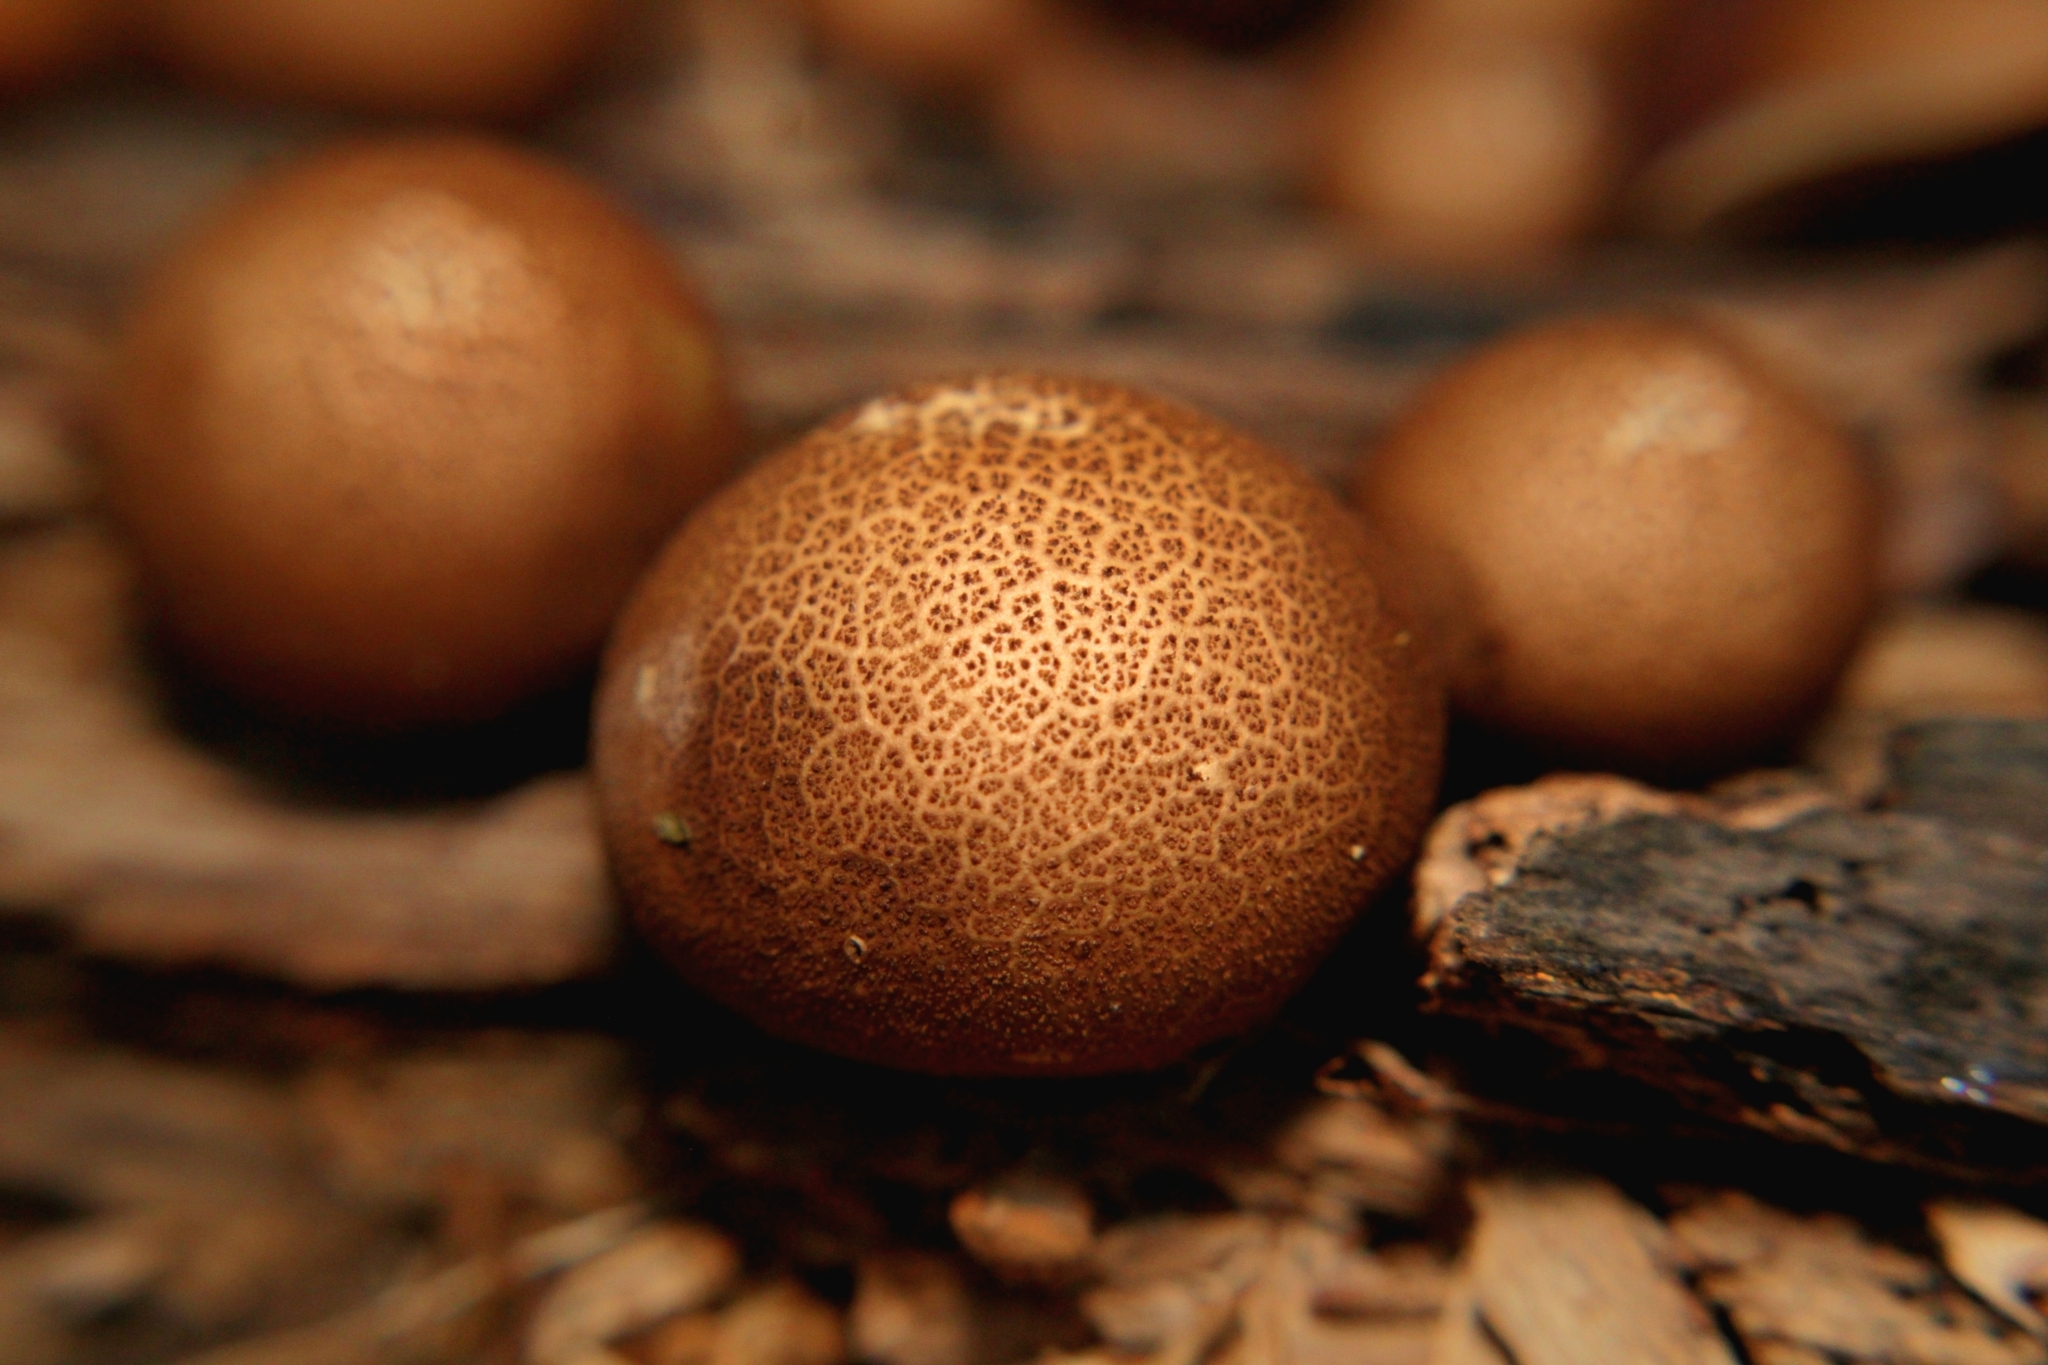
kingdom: Fungi
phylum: Basidiomycota
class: Agaricomycetes
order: Agaricales
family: Lycoperdaceae
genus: Apioperdon
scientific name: Apioperdon pyriforme
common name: Pear-shaped puffball
